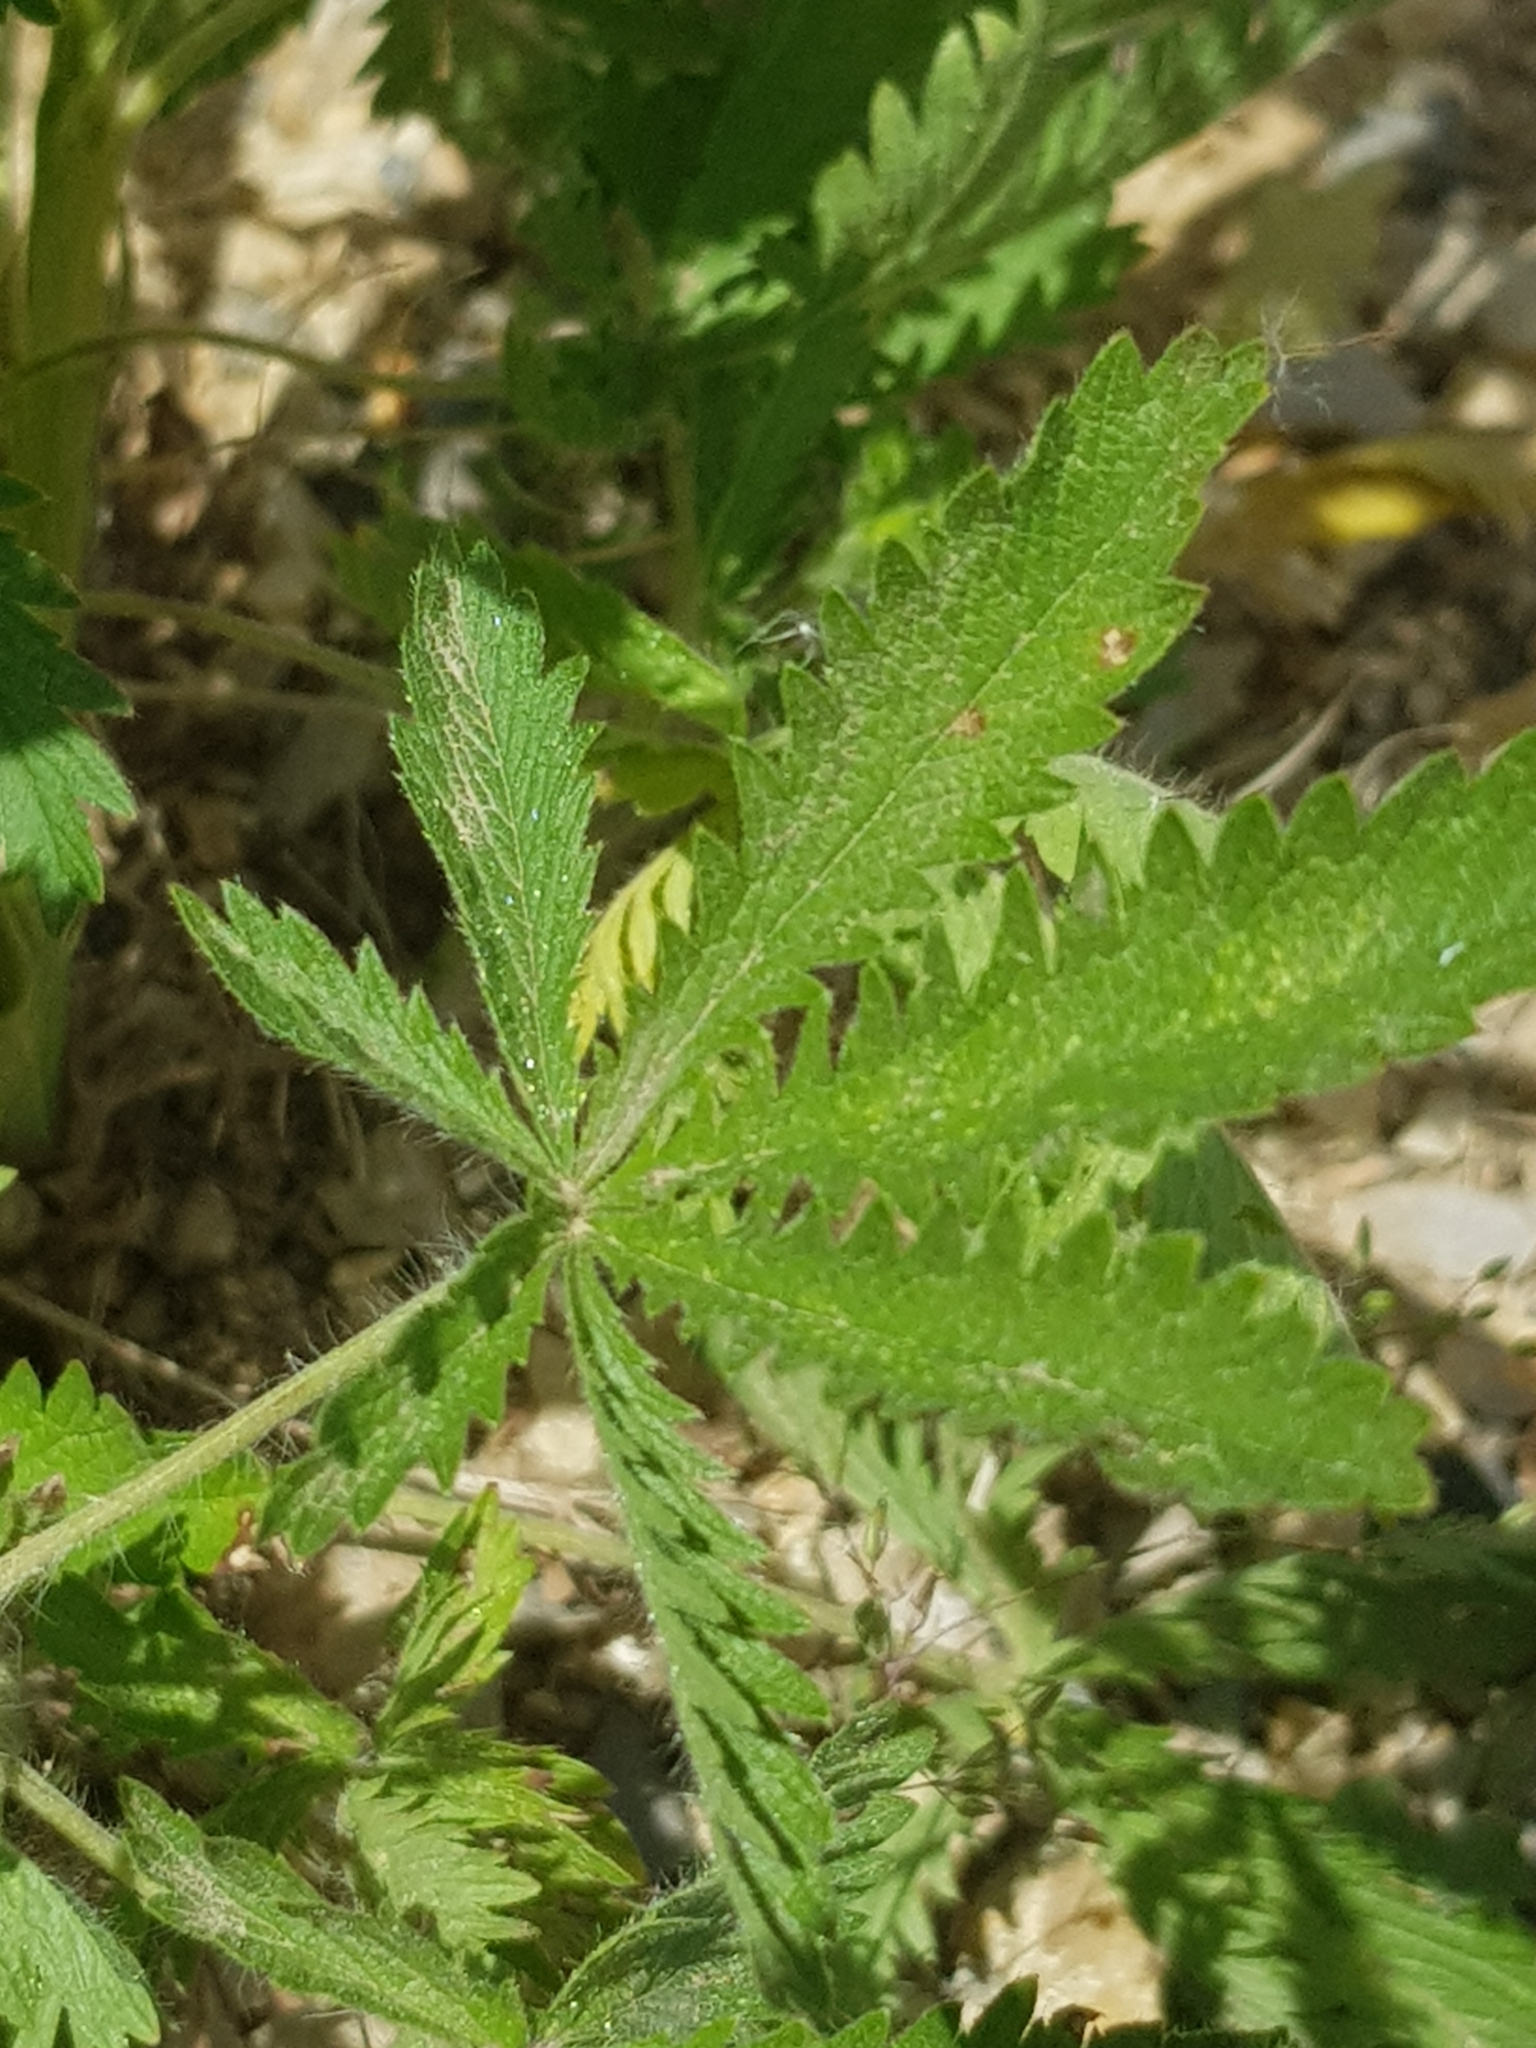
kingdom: Plantae
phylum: Tracheophyta
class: Magnoliopsida
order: Rosales
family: Rosaceae
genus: Potentilla
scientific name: Potentilla recta
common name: Sulphur cinquefoil
